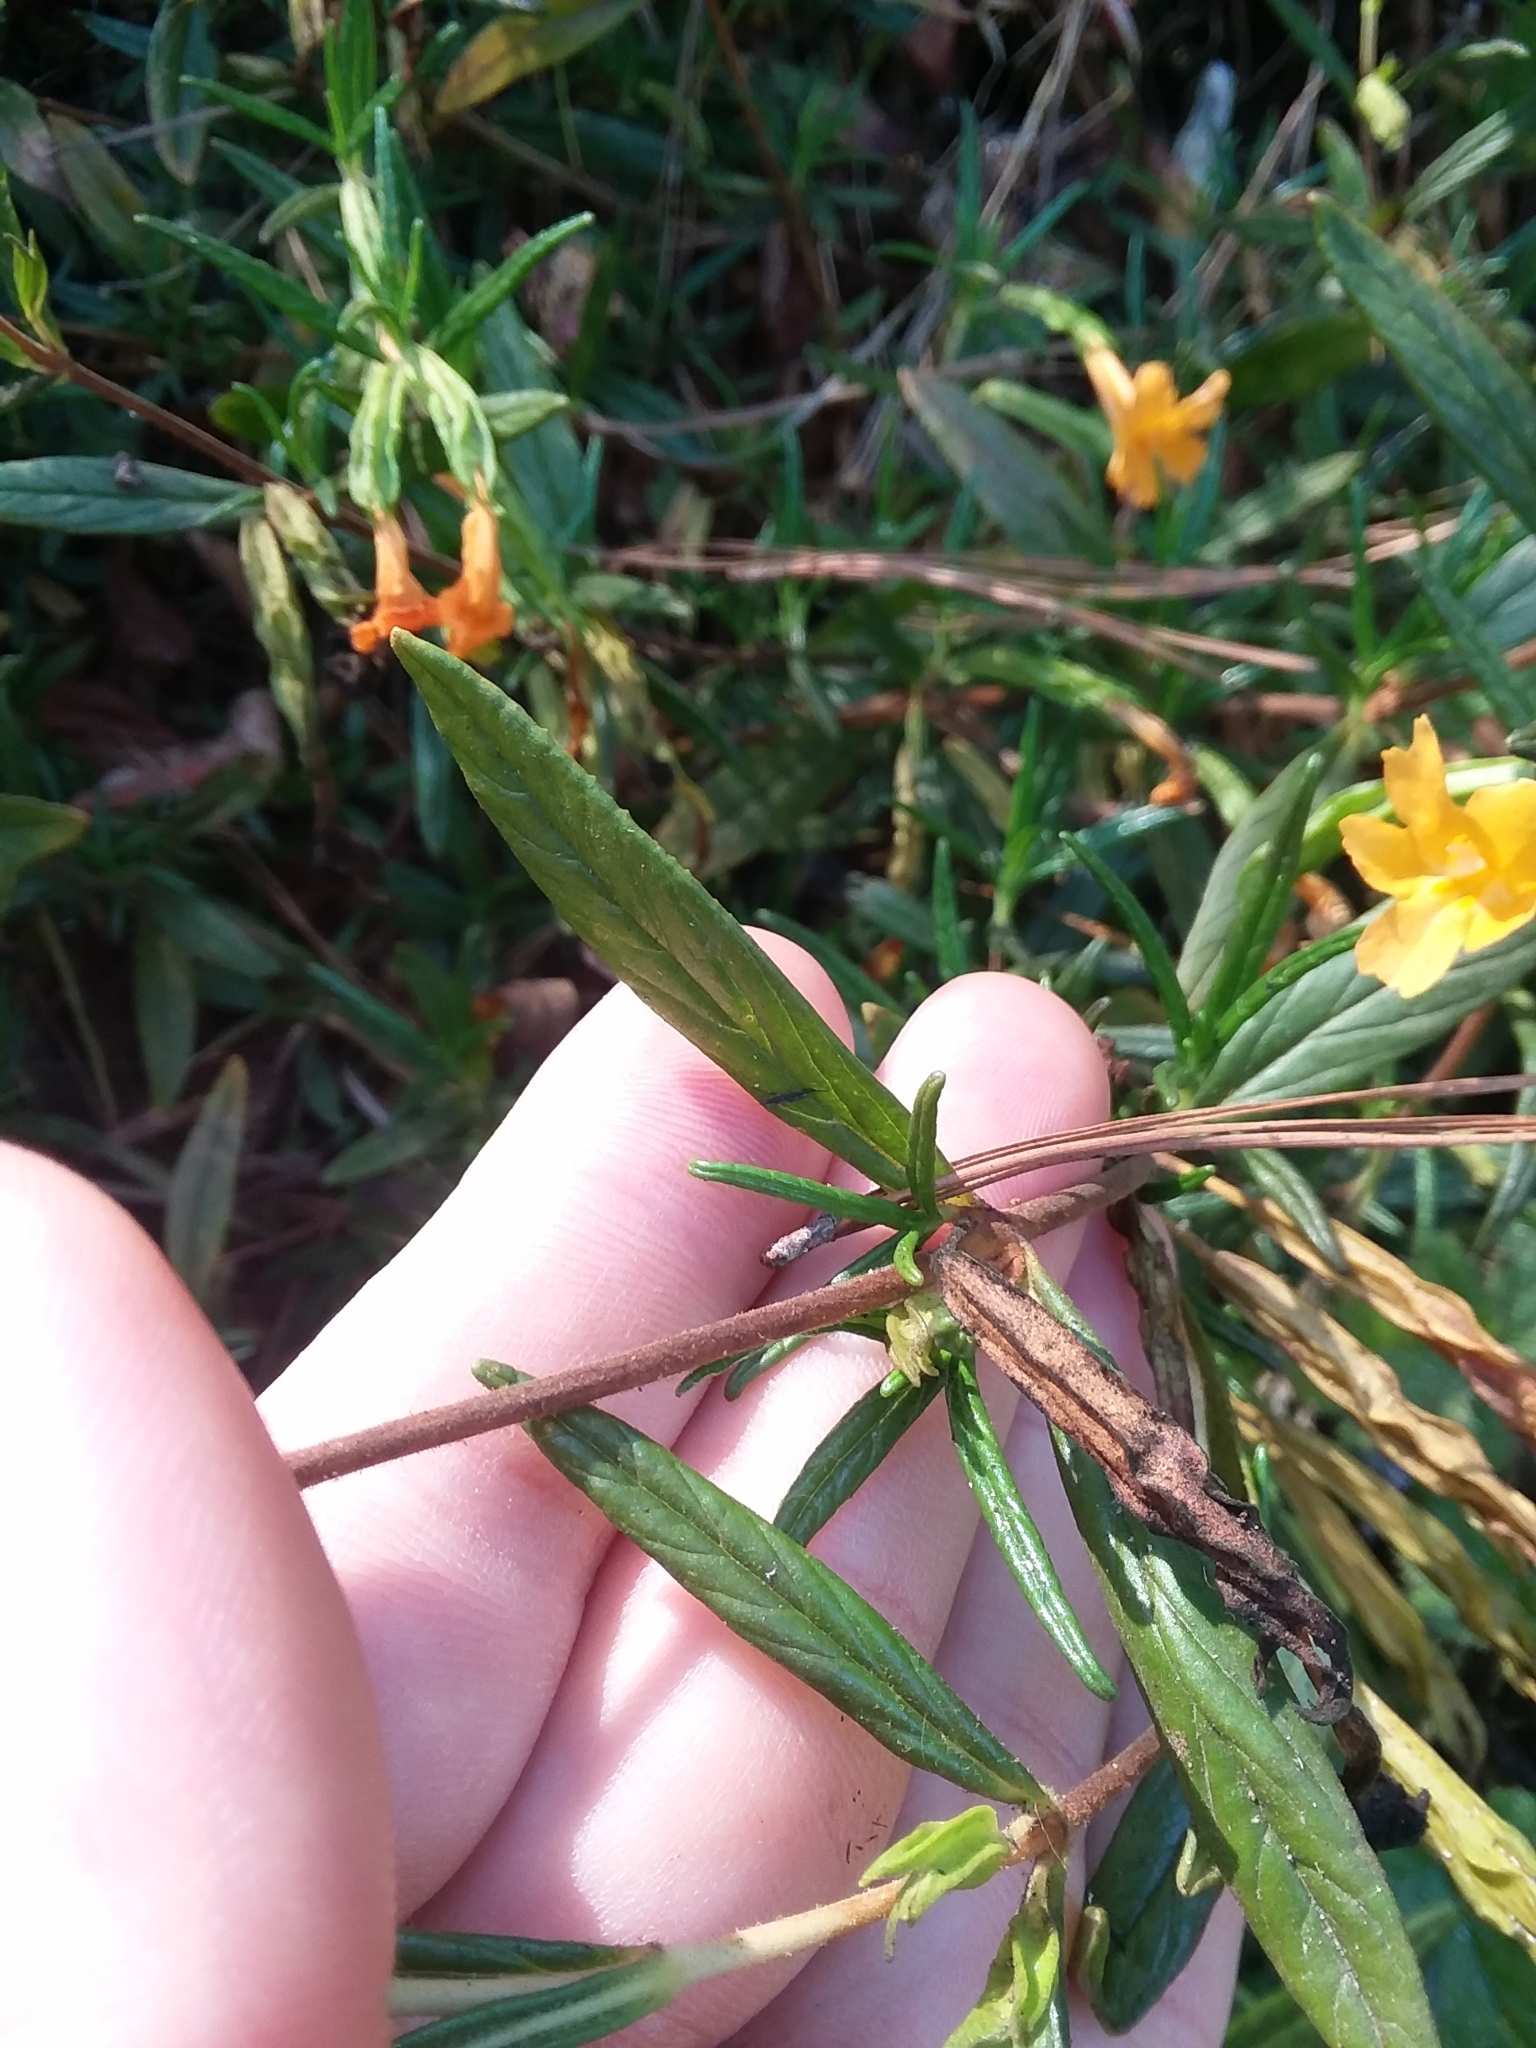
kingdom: Plantae
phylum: Tracheophyta
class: Magnoliopsida
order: Lamiales
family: Phrymaceae
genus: Diplacus
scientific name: Diplacus aurantiacus
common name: Bush monkey-flower
